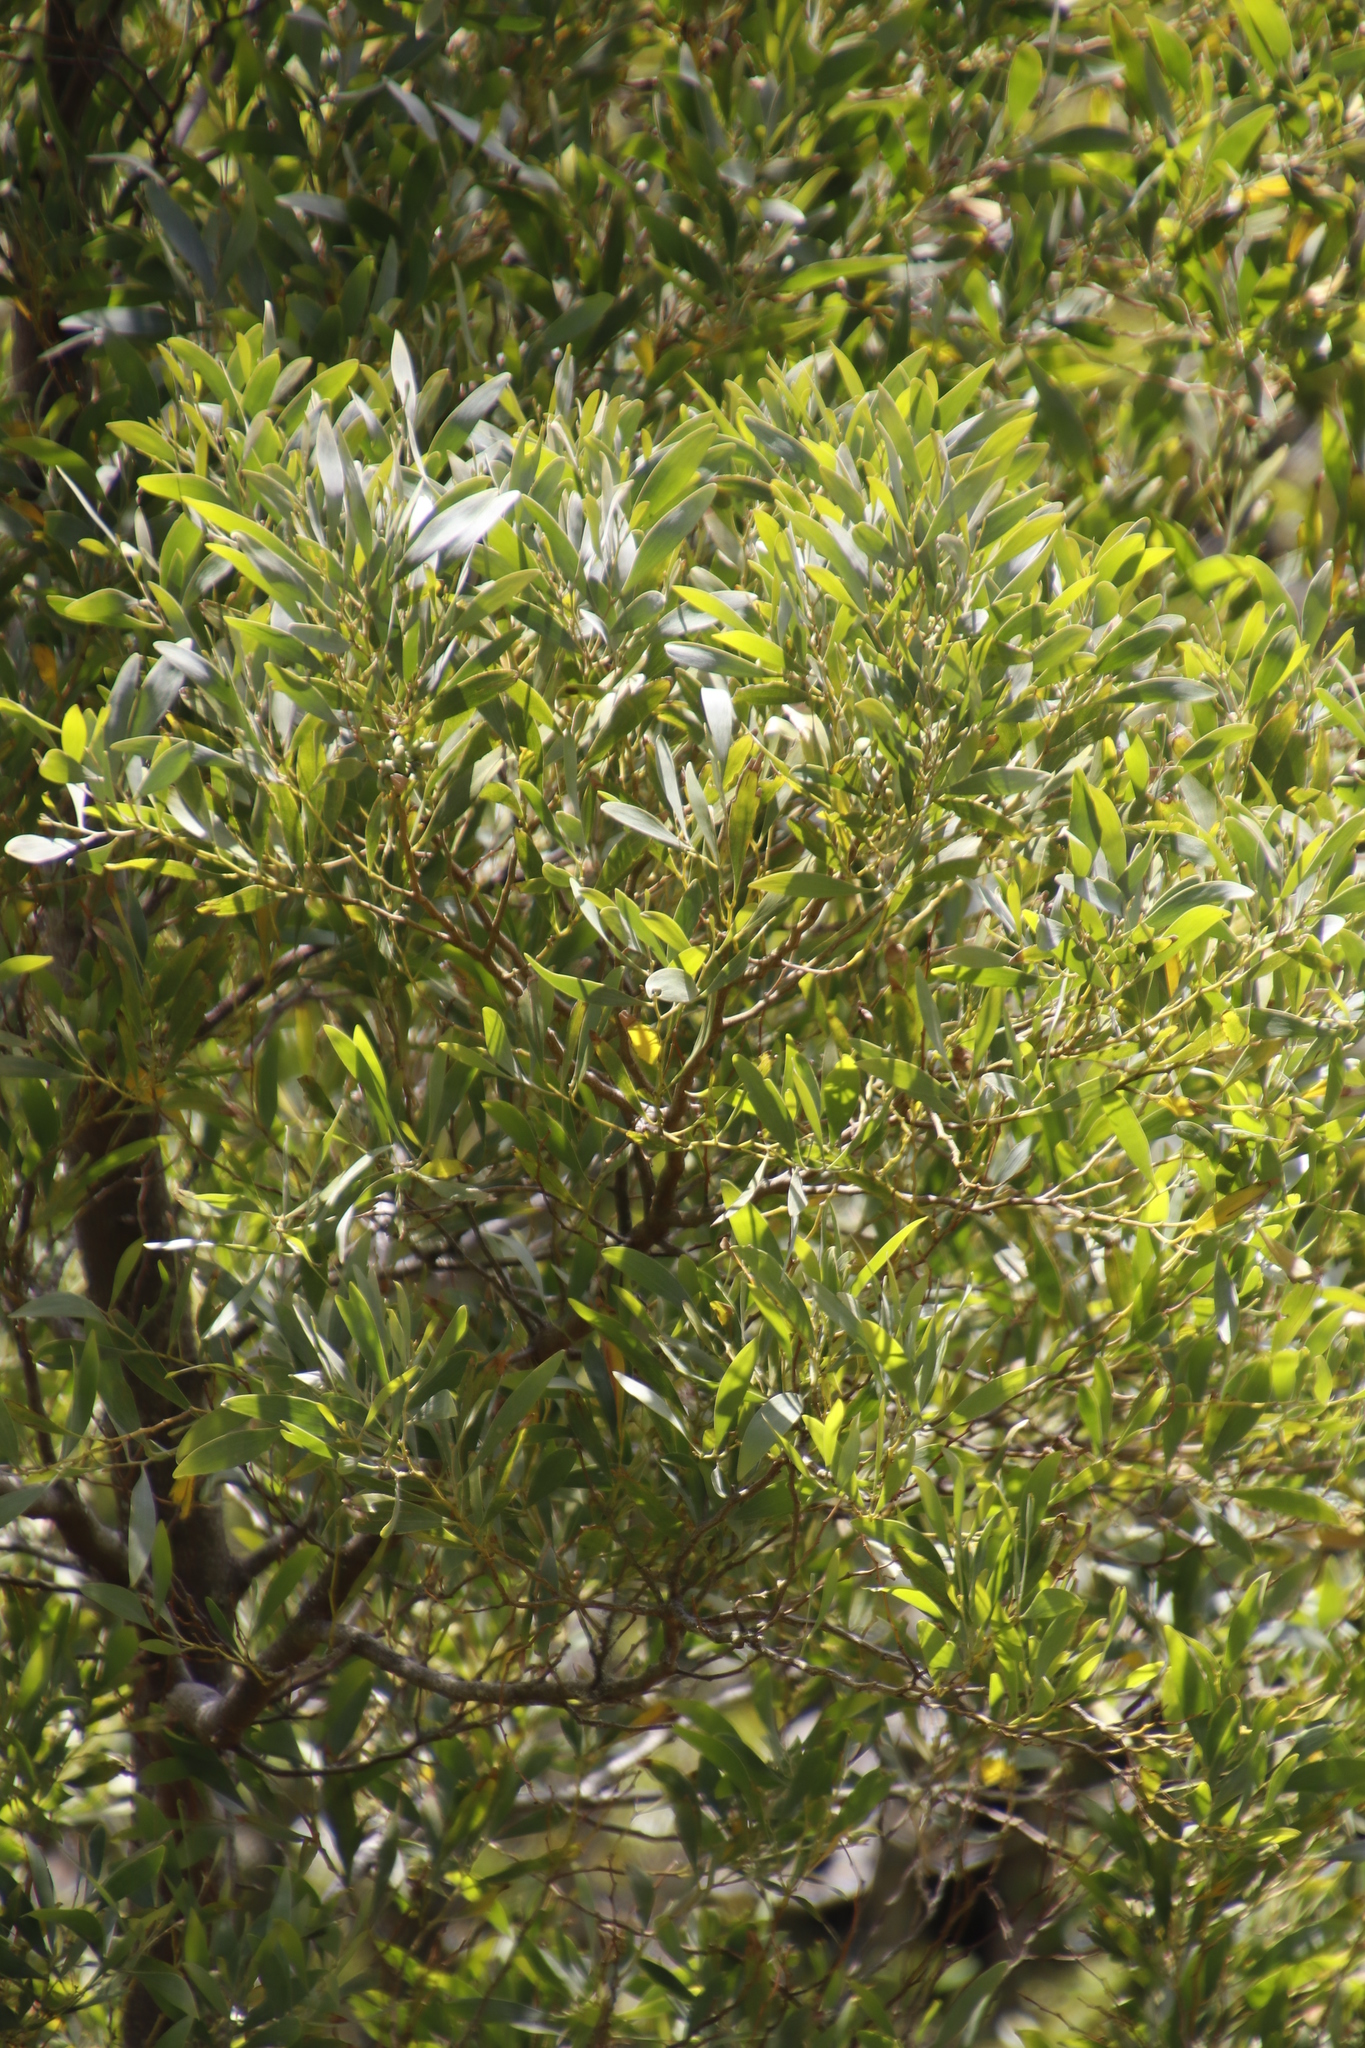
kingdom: Plantae
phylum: Tracheophyta
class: Magnoliopsida
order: Fabales
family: Fabaceae
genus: Acacia
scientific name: Acacia melanoxylon
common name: Blackwood
